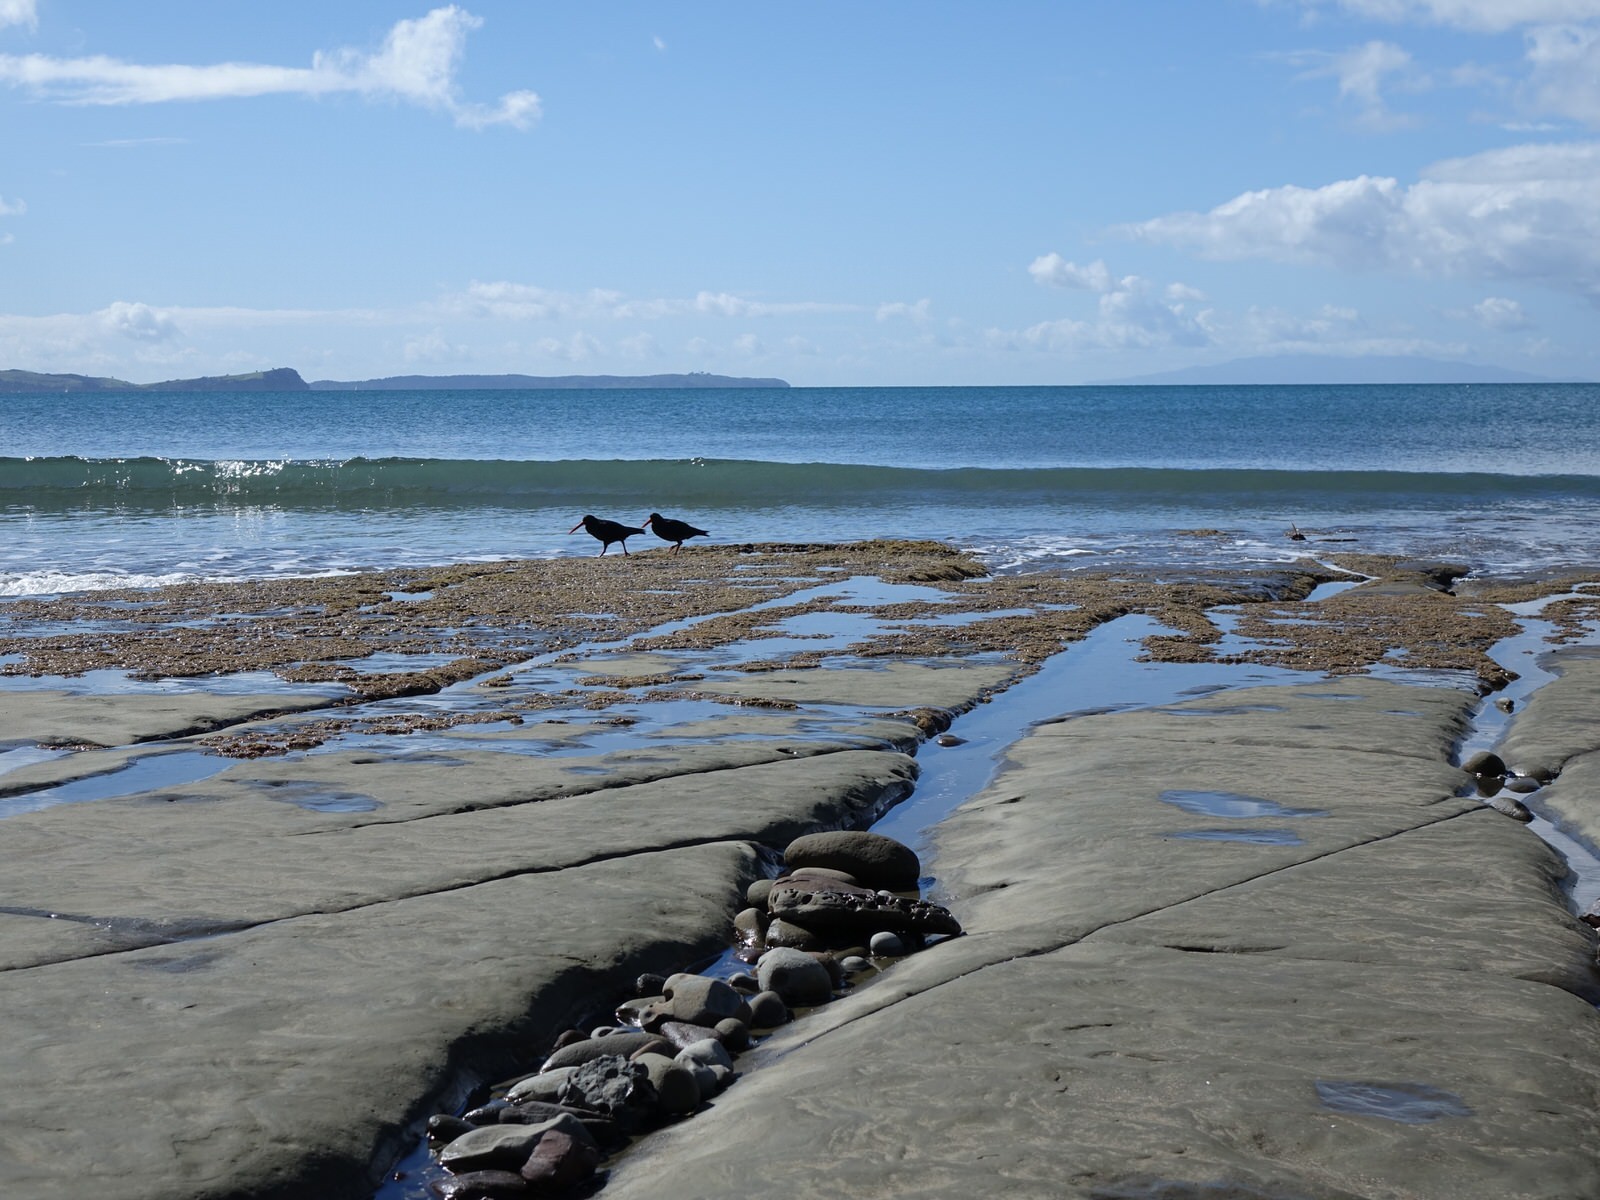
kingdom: Animalia
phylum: Chordata
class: Aves
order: Charadriiformes
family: Haematopodidae
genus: Haematopus
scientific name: Haematopus unicolor
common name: Variable oystercatcher
